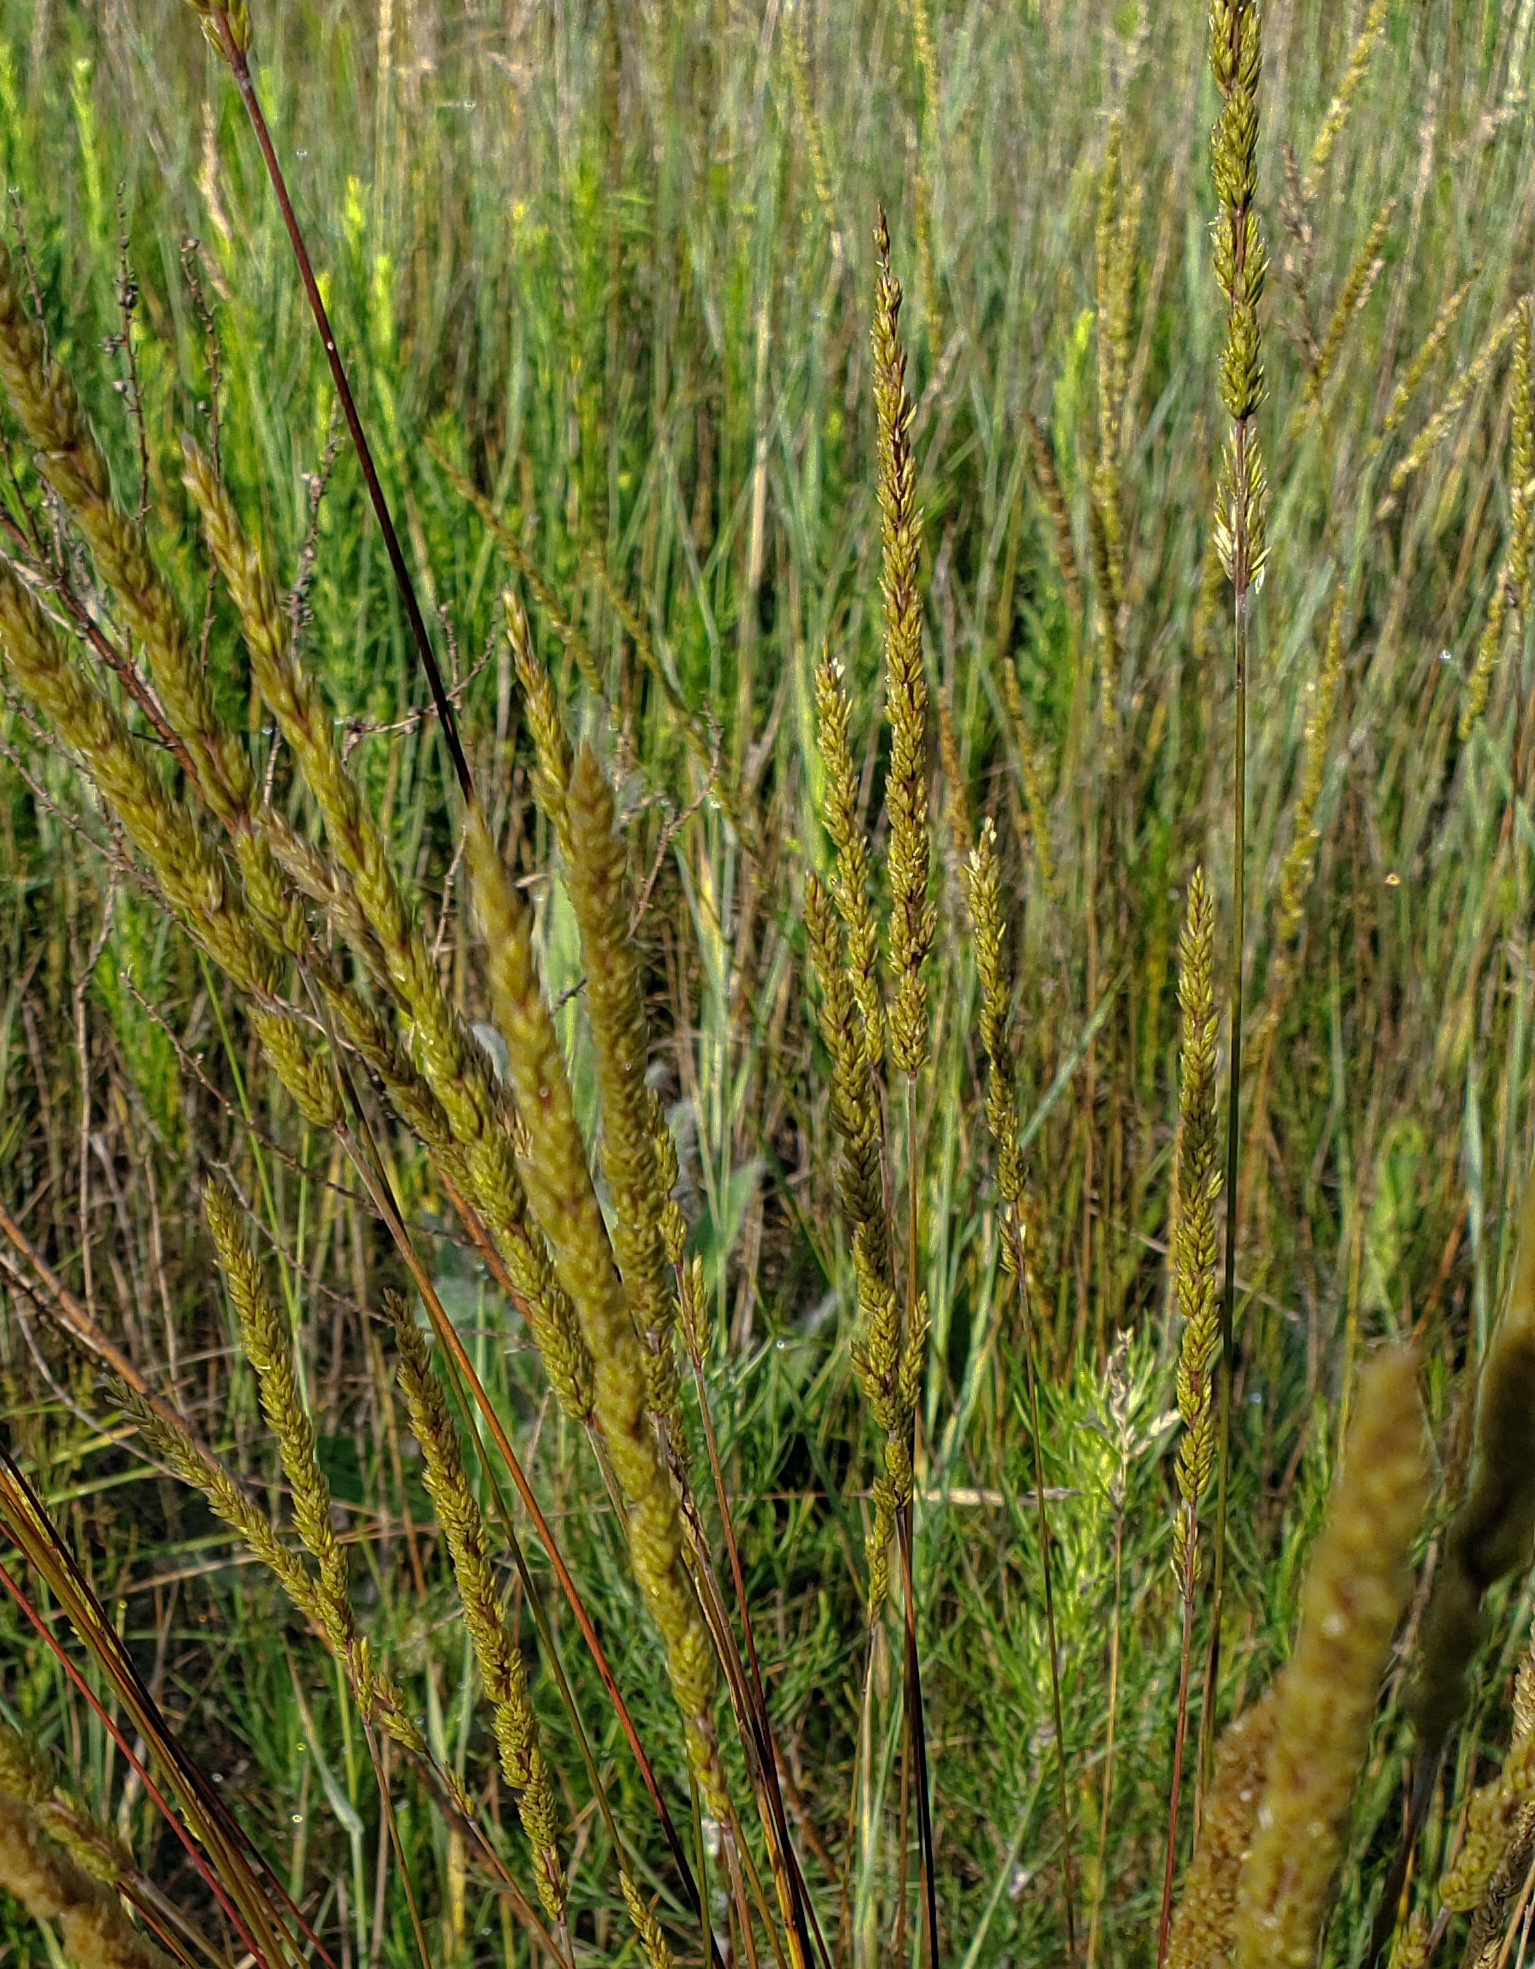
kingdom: Plantae
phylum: Tracheophyta
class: Liliopsida
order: Poales
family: Poaceae
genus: Koeleria
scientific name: Koeleria macrantha
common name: Crested hair-grass
